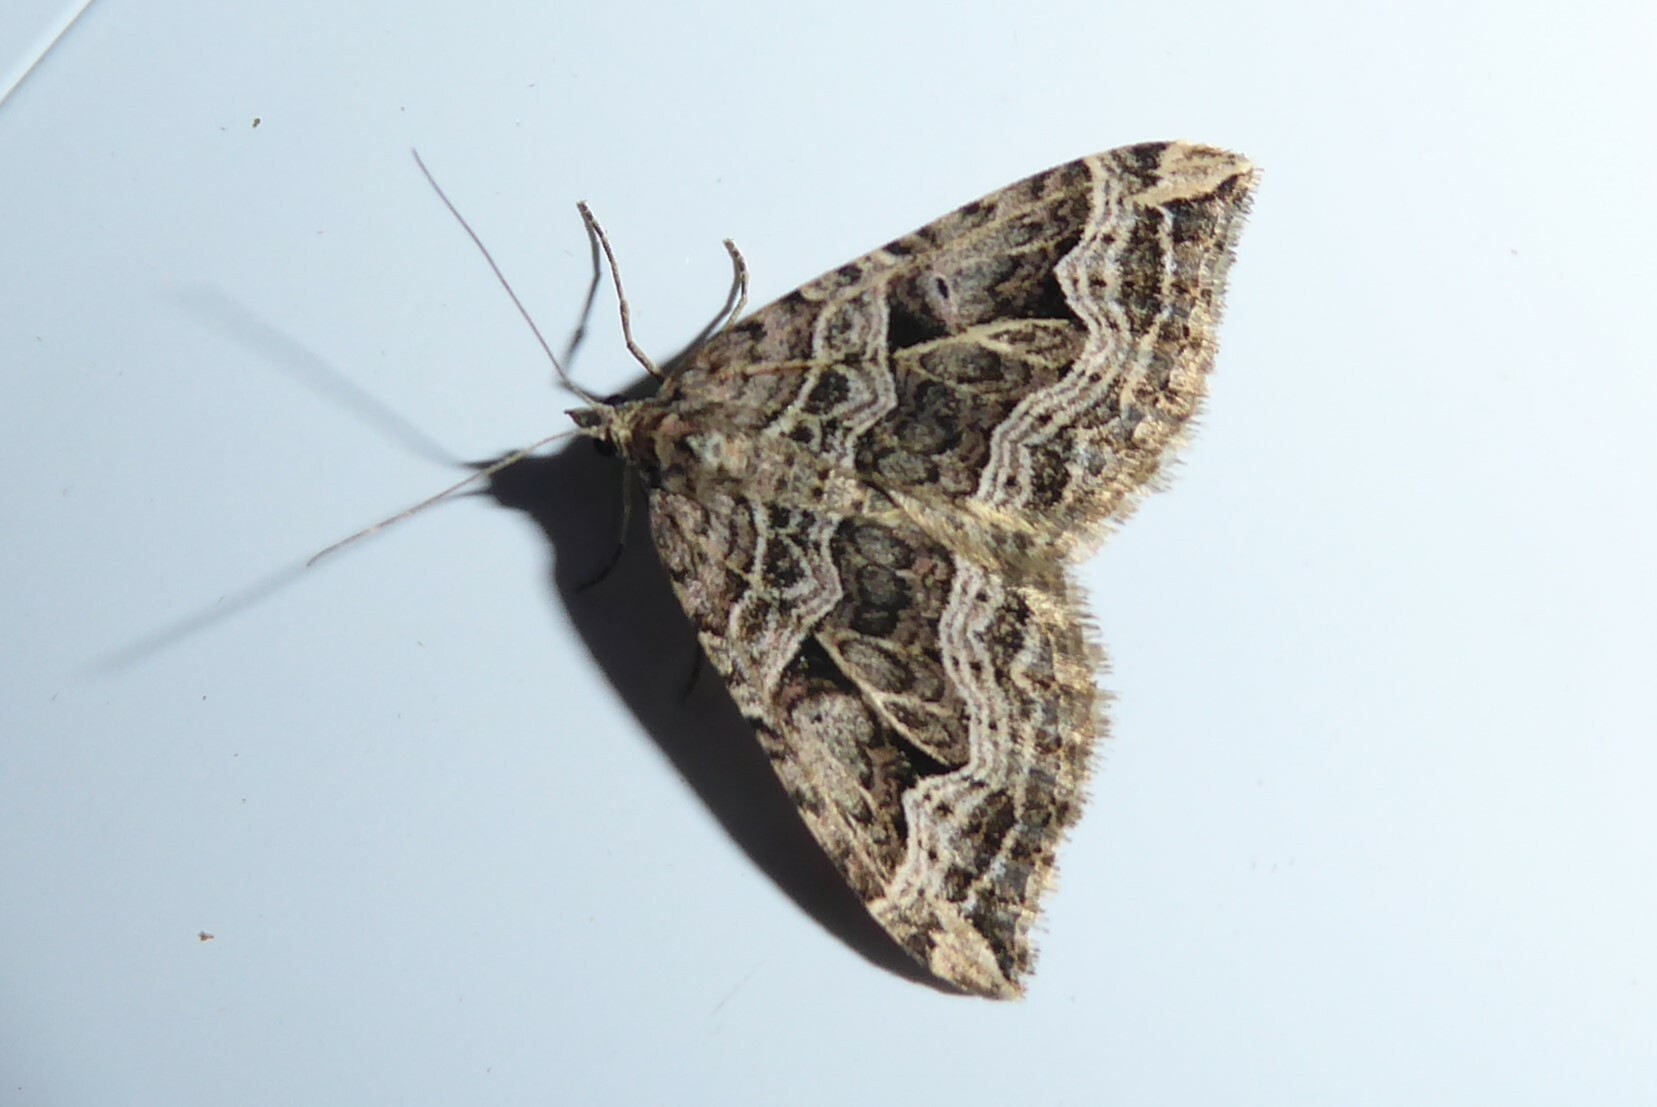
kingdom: Animalia
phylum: Arthropoda
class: Insecta
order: Lepidoptera
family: Geometridae
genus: Xanthorhoe
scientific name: Xanthorhoe semifissata
